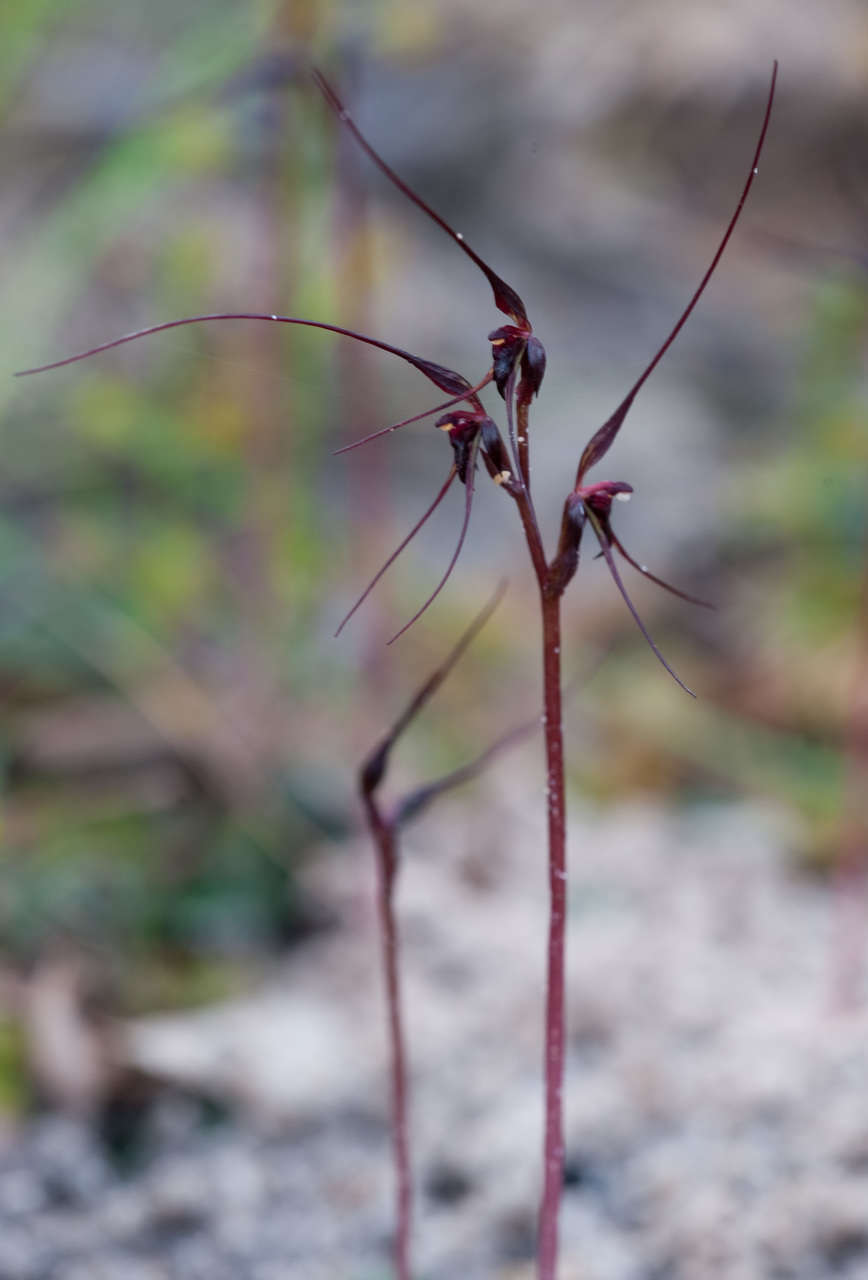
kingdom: Plantae
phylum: Tracheophyta
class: Liliopsida
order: Asparagales
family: Orchidaceae
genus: Acianthus
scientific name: Acianthus caudatus
